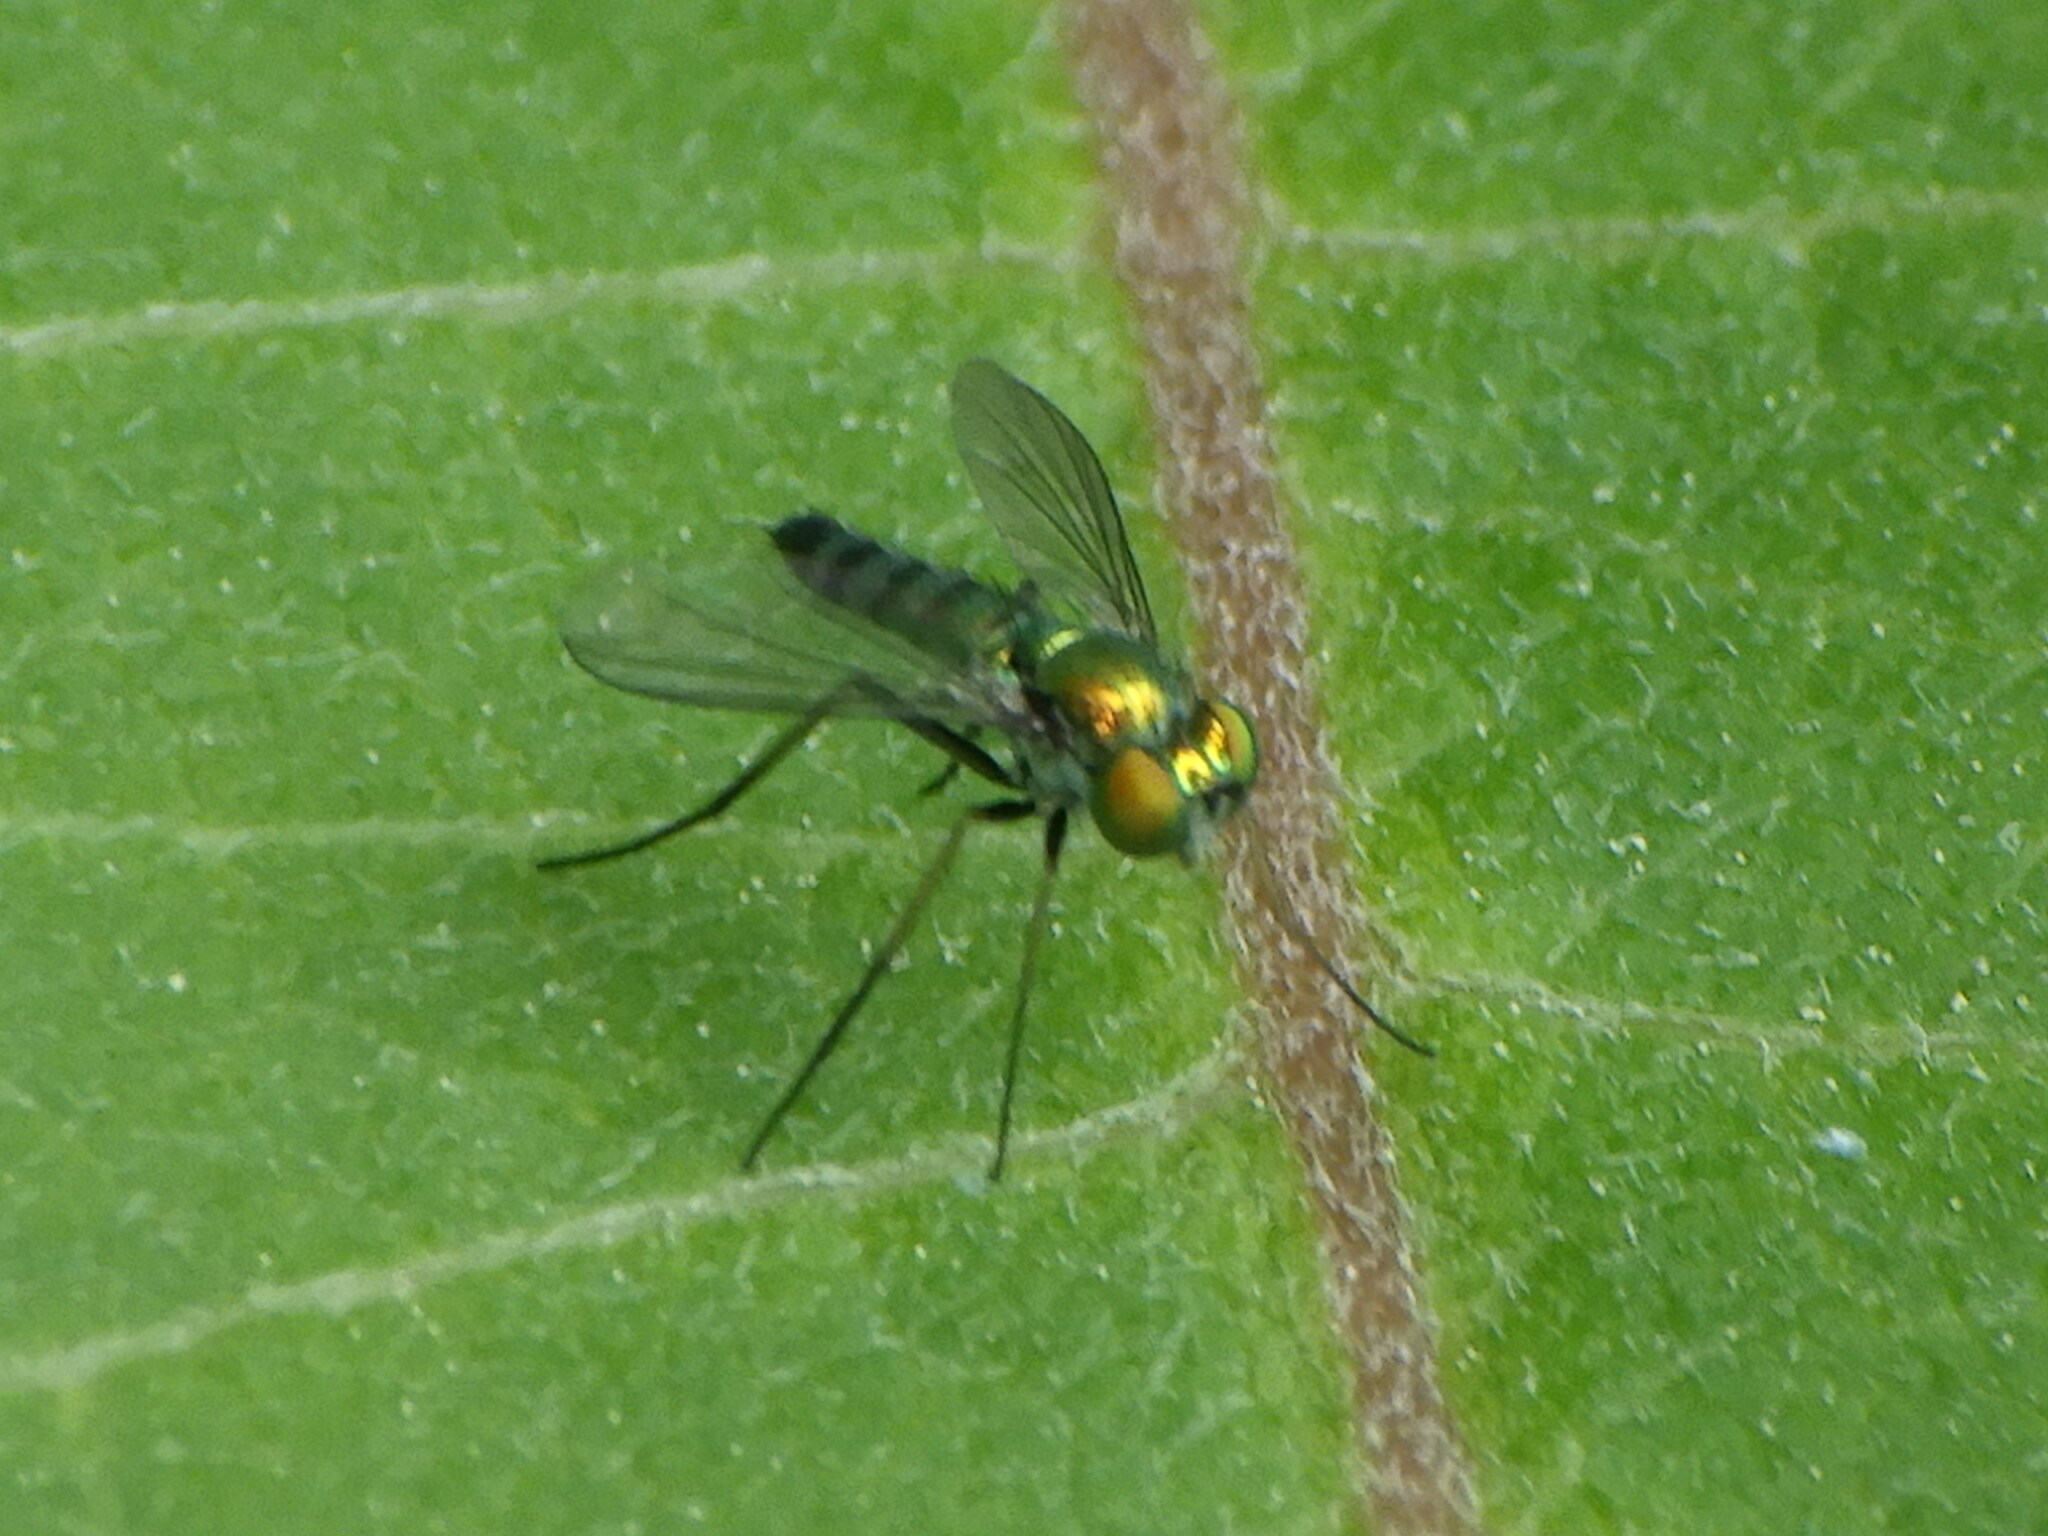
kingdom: Animalia
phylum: Arthropoda
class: Insecta
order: Diptera
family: Dolichopodidae
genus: Condylostylus
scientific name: Condylostylus
